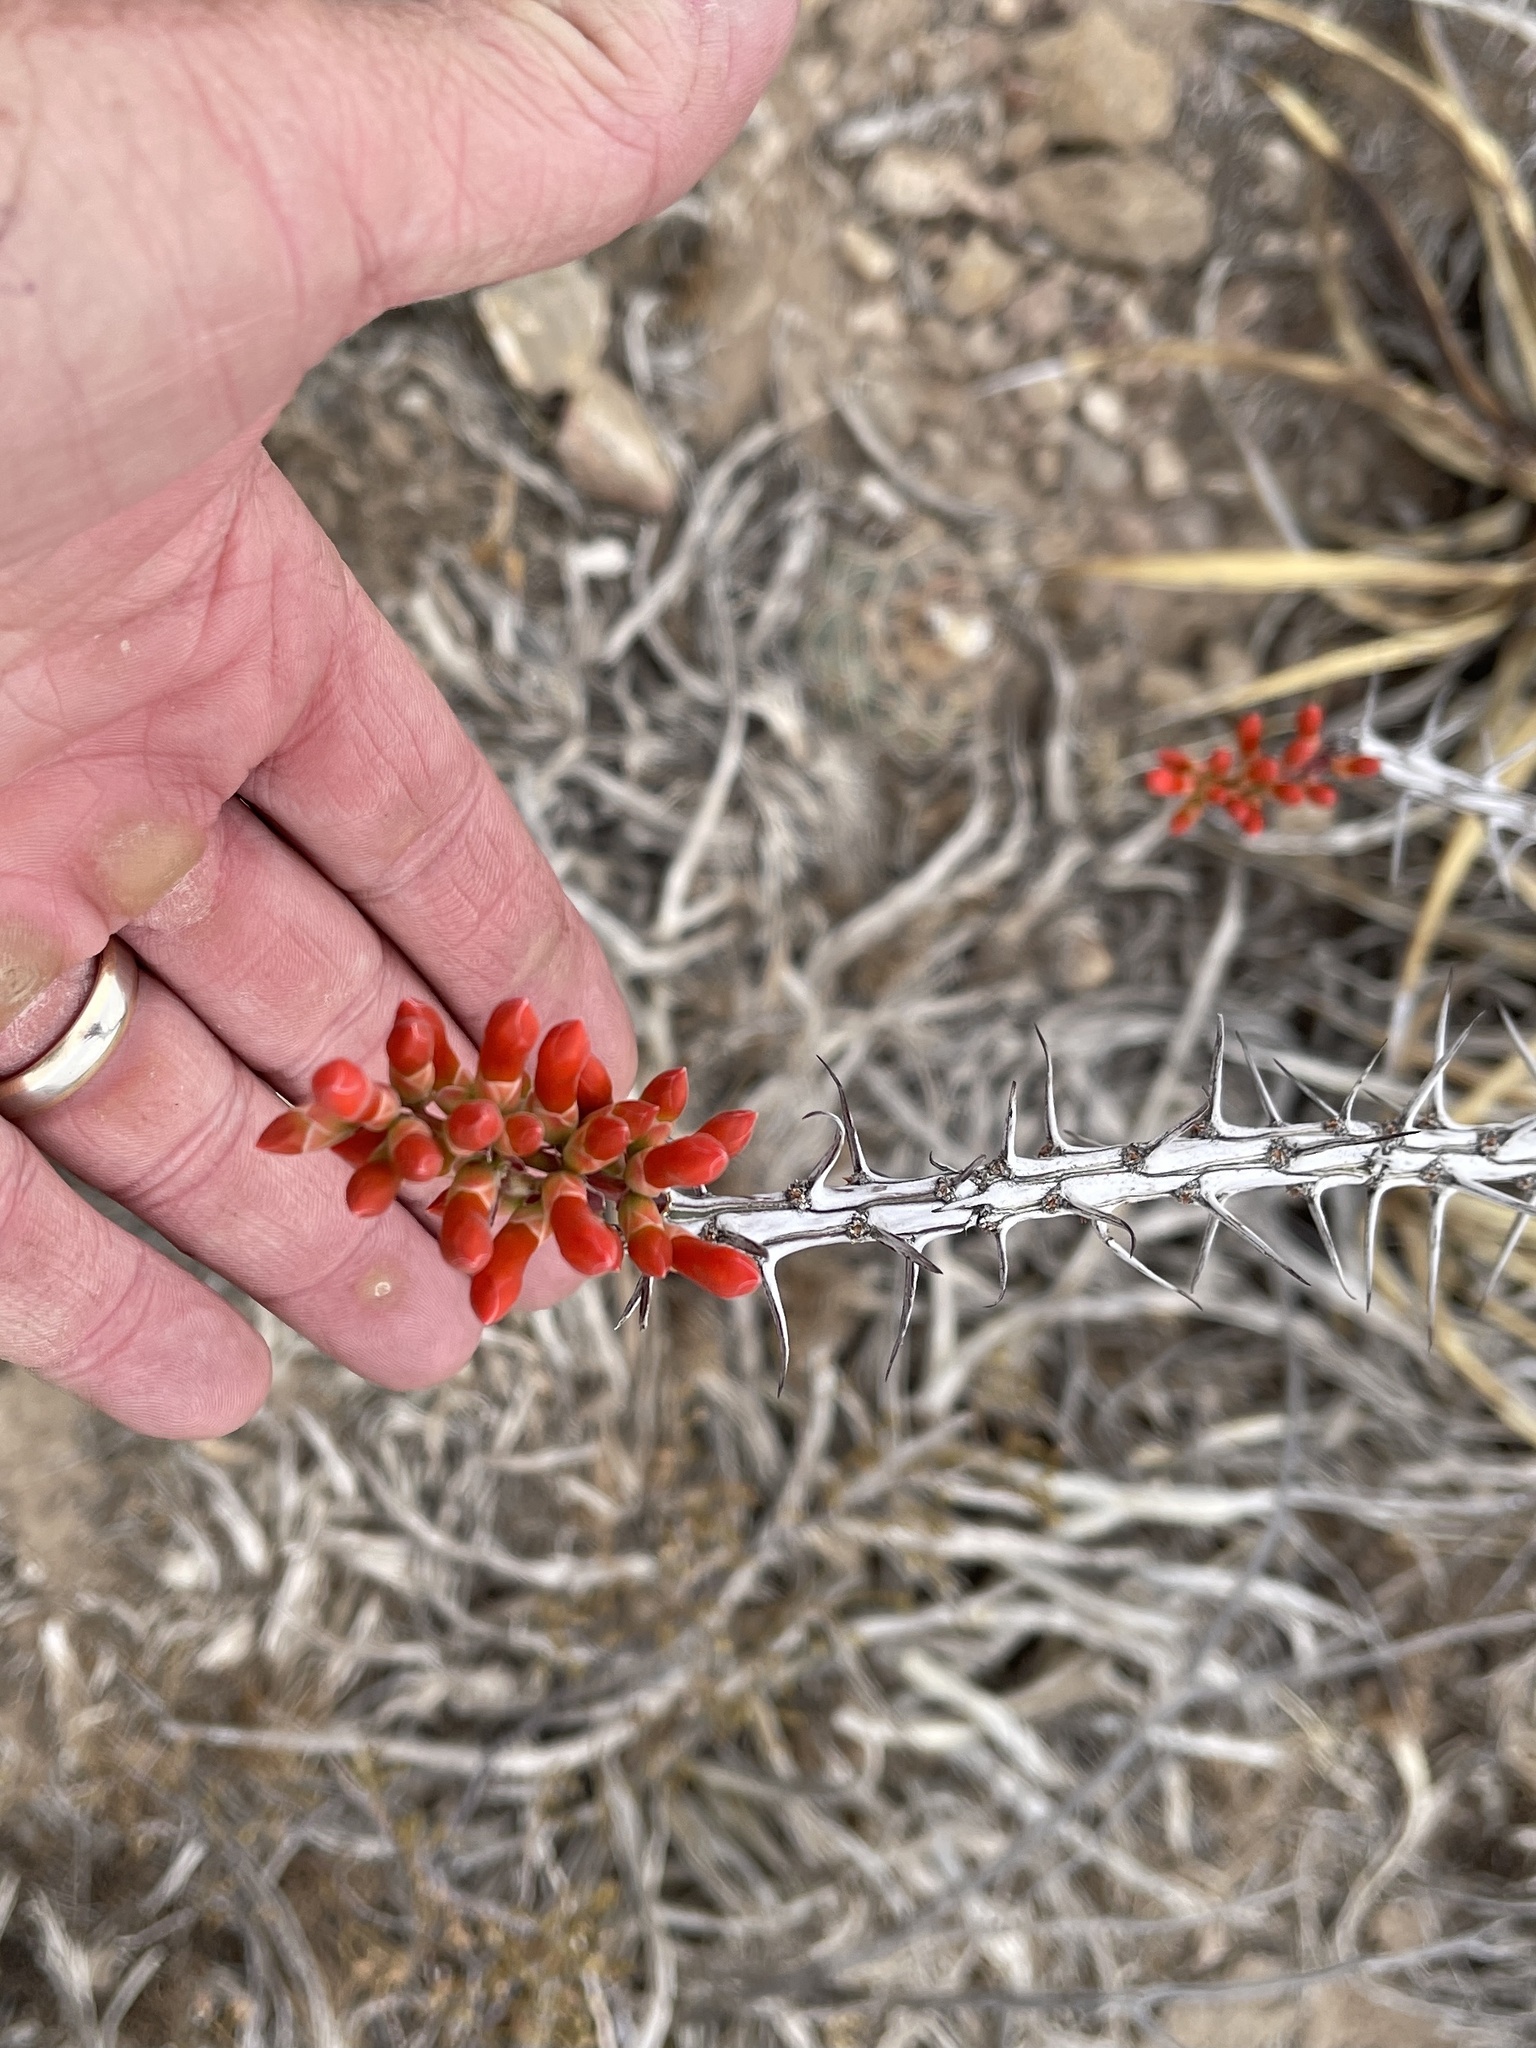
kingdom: Plantae
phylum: Tracheophyta
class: Magnoliopsida
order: Ericales
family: Fouquieriaceae
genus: Fouquieria
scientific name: Fouquieria splendens
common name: Vine-cactus
